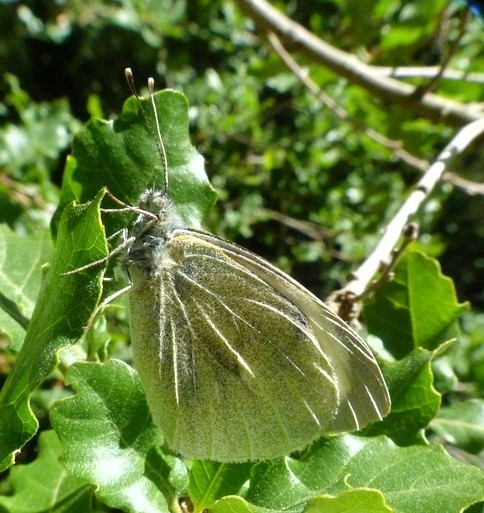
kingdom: Animalia
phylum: Arthropoda
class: Insecta
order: Lepidoptera
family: Pieridae
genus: Pieris
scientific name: Pieris brassicae
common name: Large white
